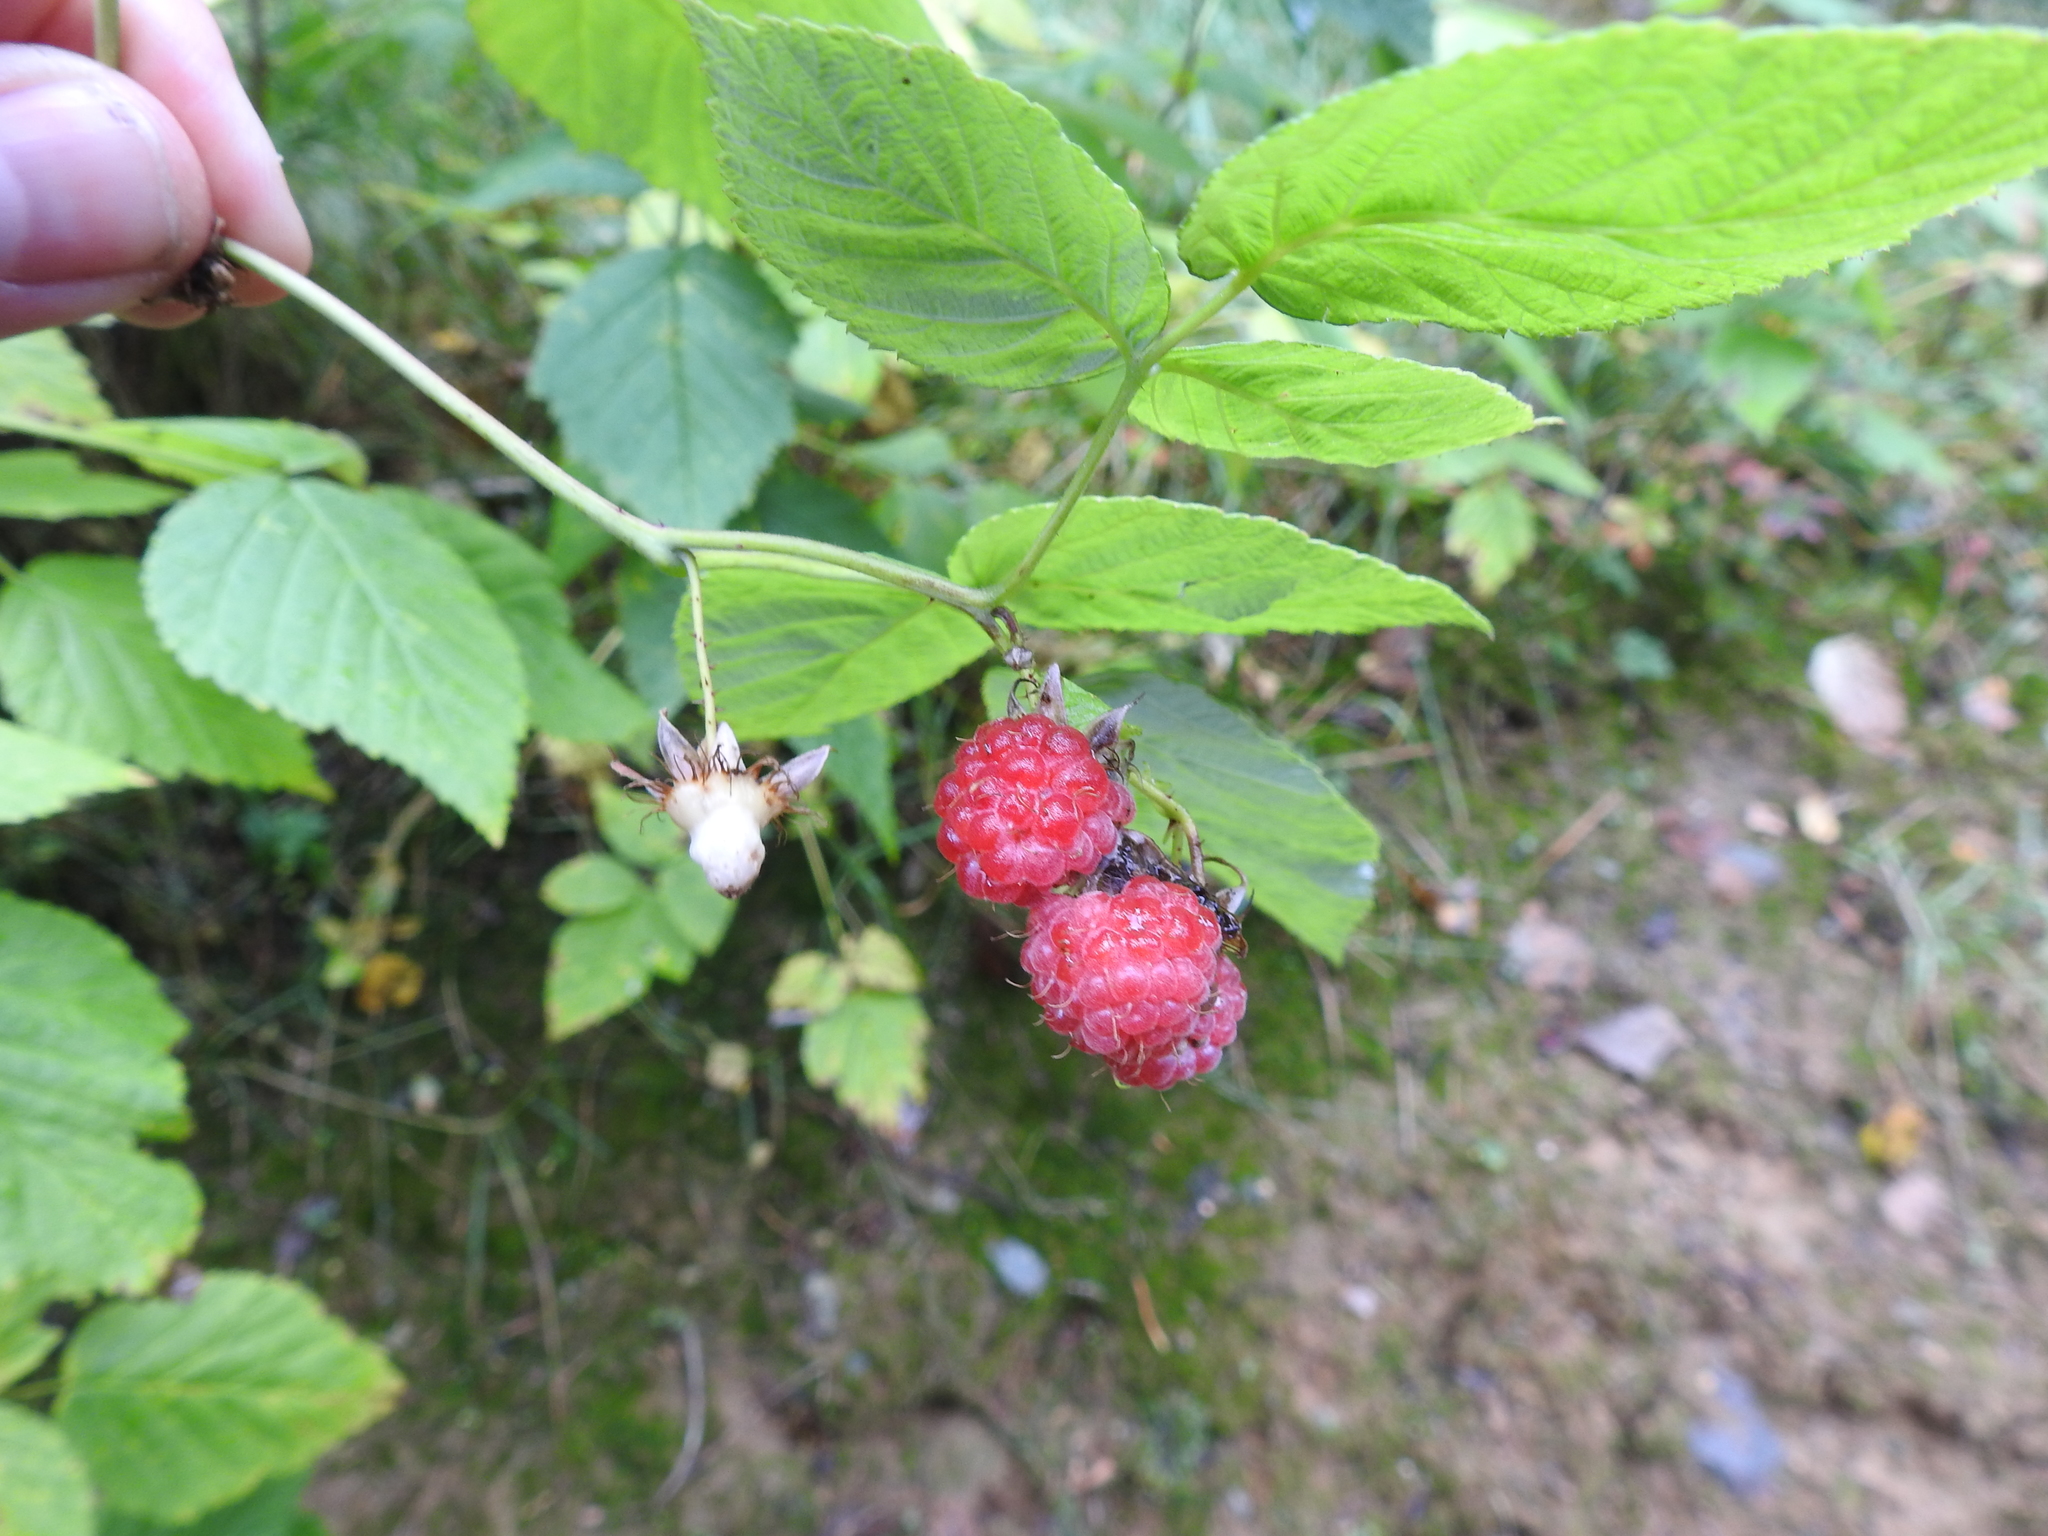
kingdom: Plantae
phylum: Tracheophyta
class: Magnoliopsida
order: Rosales
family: Rosaceae
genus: Rubus
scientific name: Rubus idaeus
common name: Raspberry
